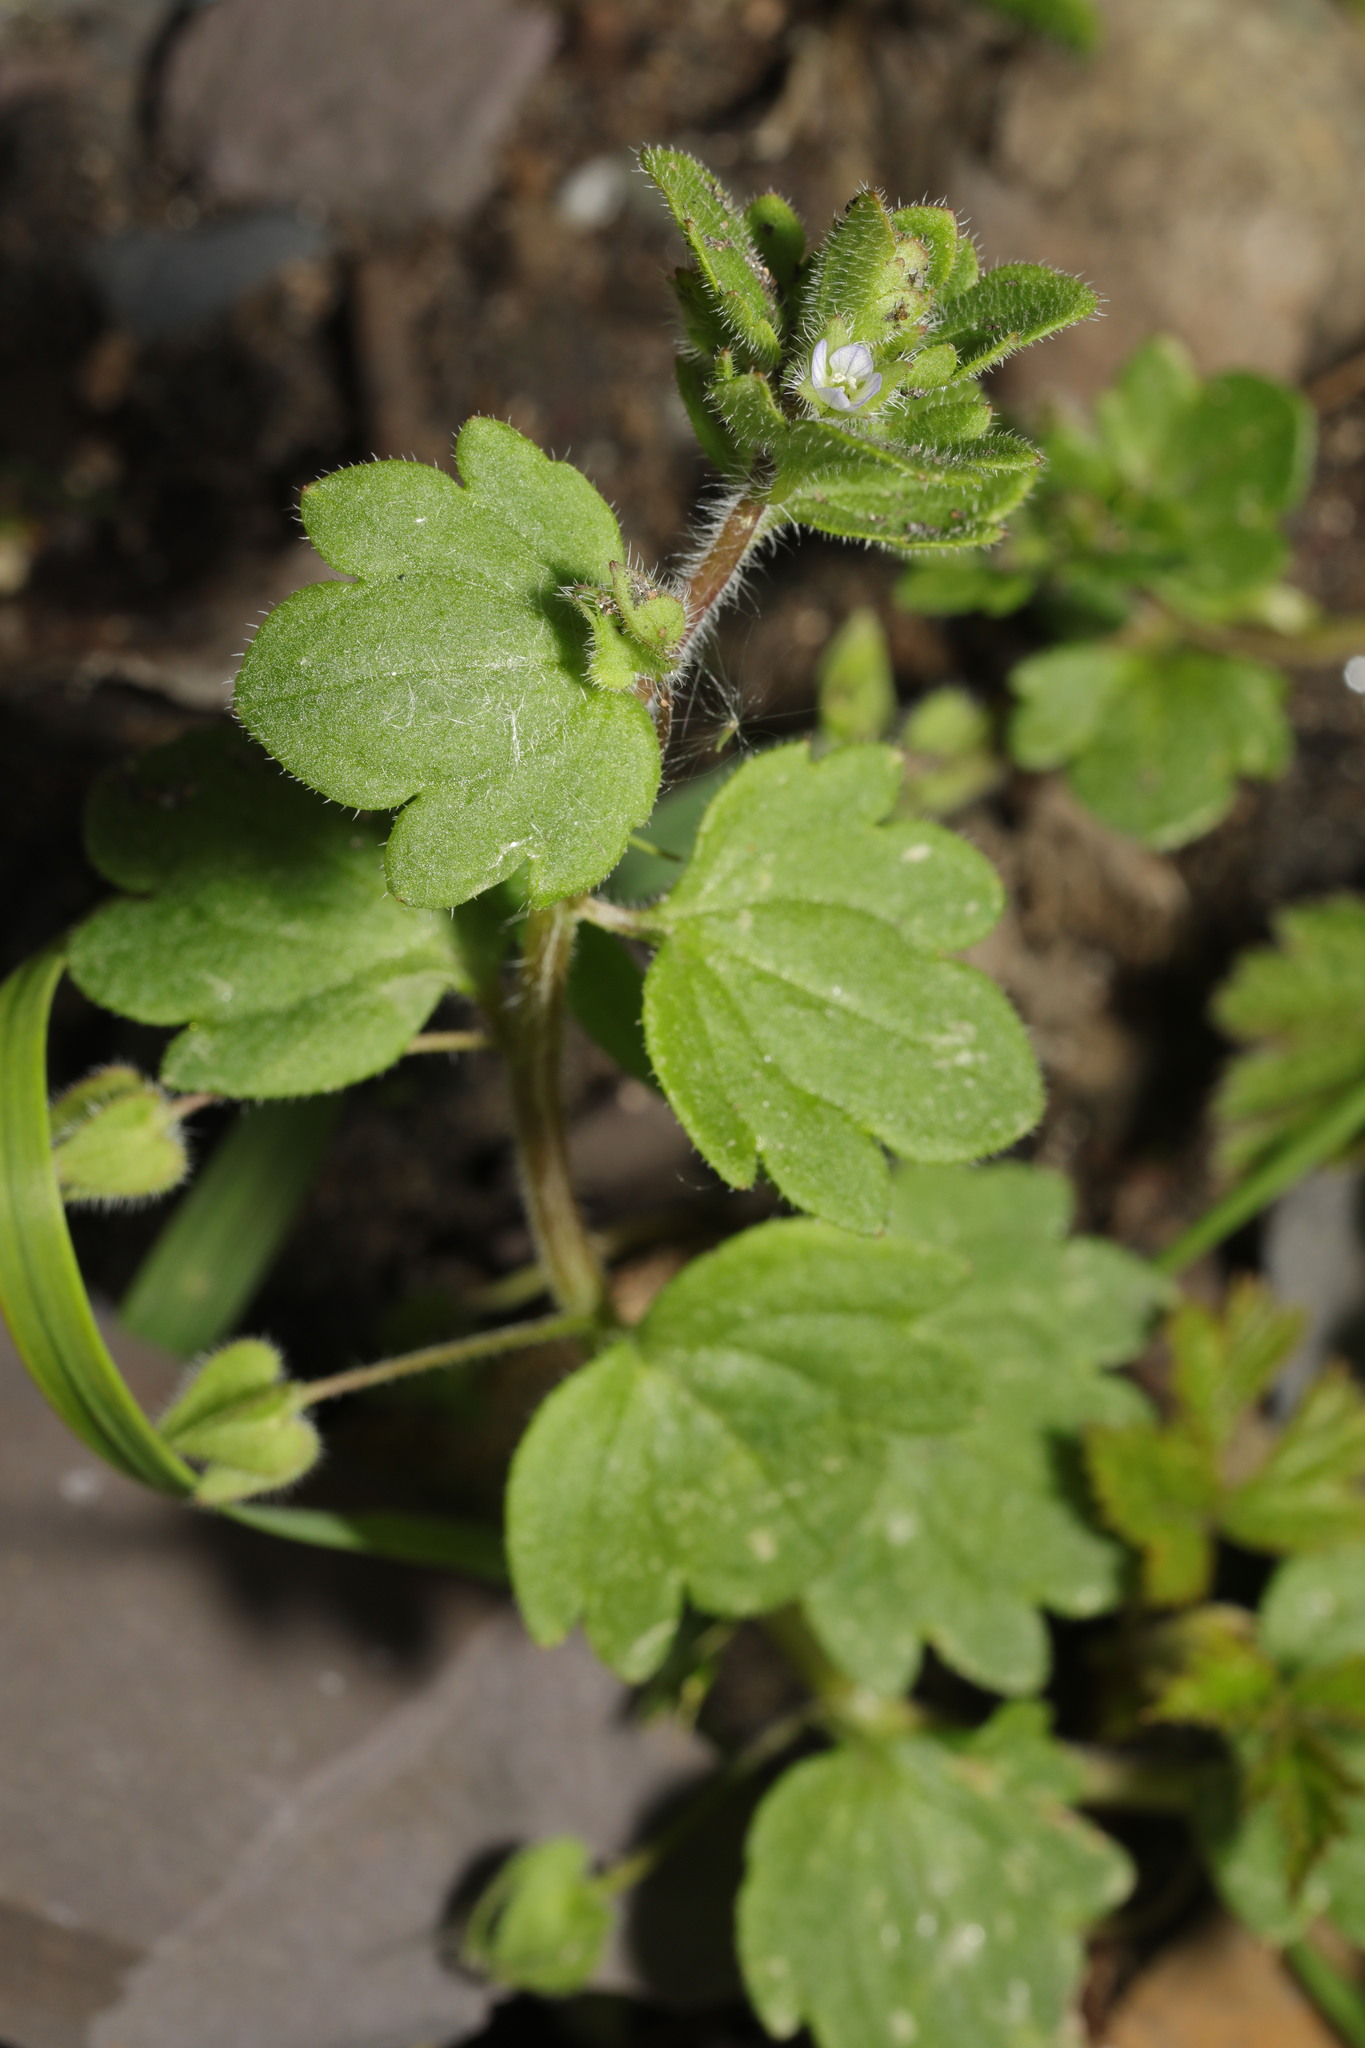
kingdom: Plantae
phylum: Tracheophyta
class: Magnoliopsida
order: Lamiales
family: Plantaginaceae
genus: Veronica
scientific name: Veronica sublobata
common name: False ivy-leaved speedwell
